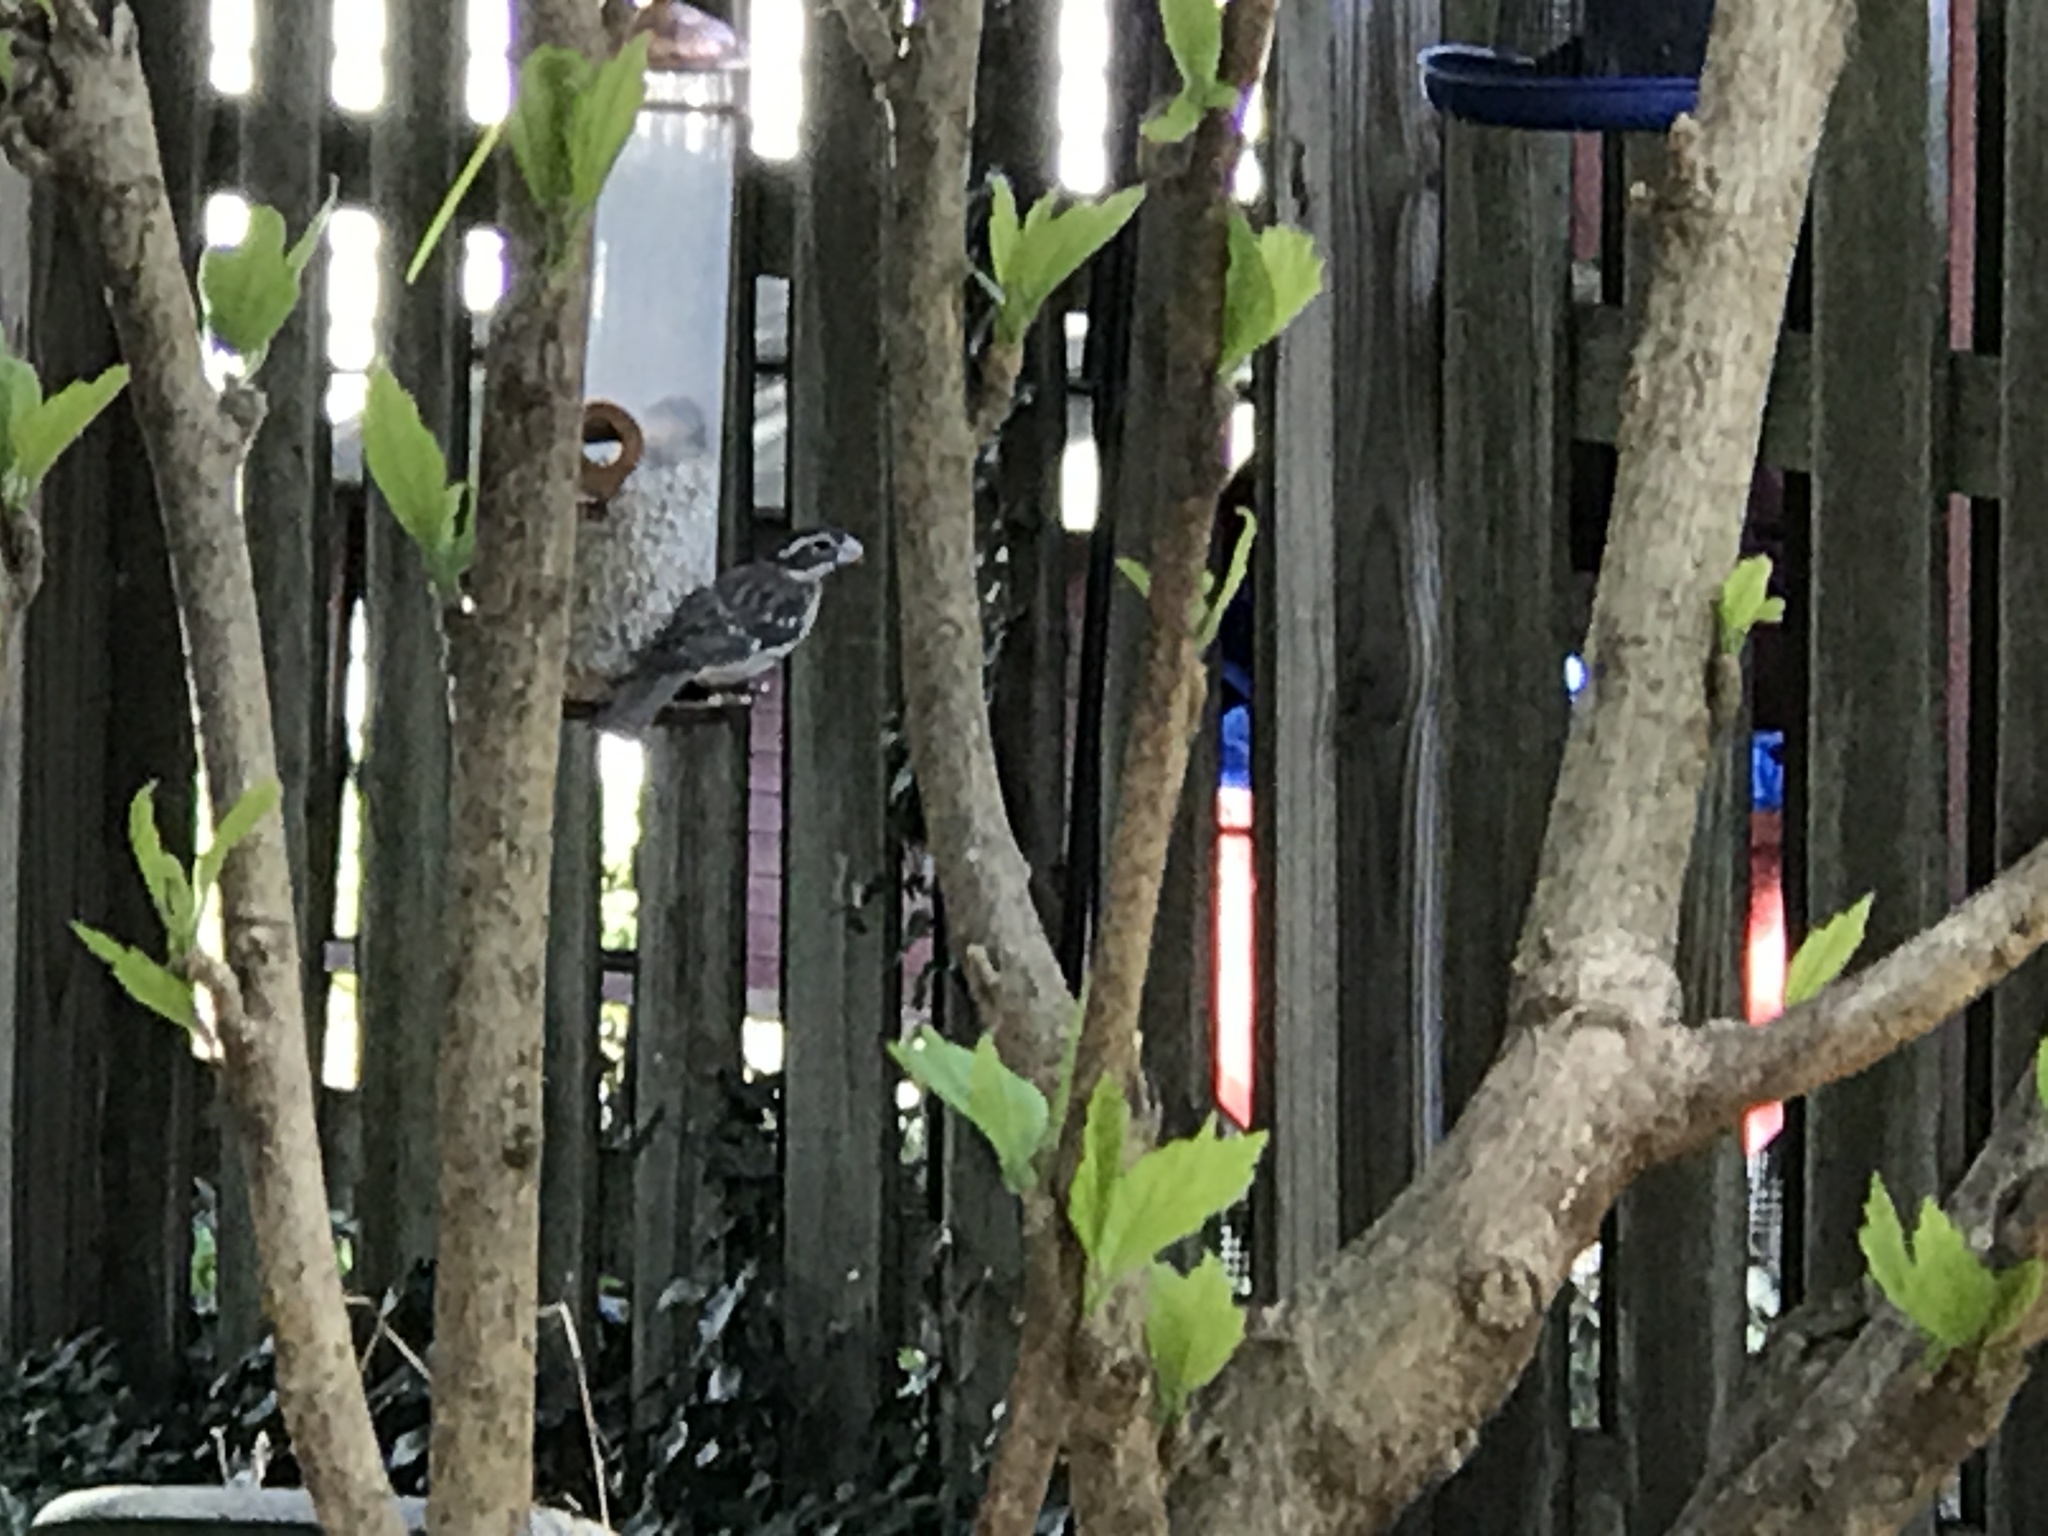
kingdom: Animalia
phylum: Chordata
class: Aves
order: Passeriformes
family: Cardinalidae
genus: Pheucticus
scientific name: Pheucticus ludovicianus
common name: Rose-breasted grosbeak
